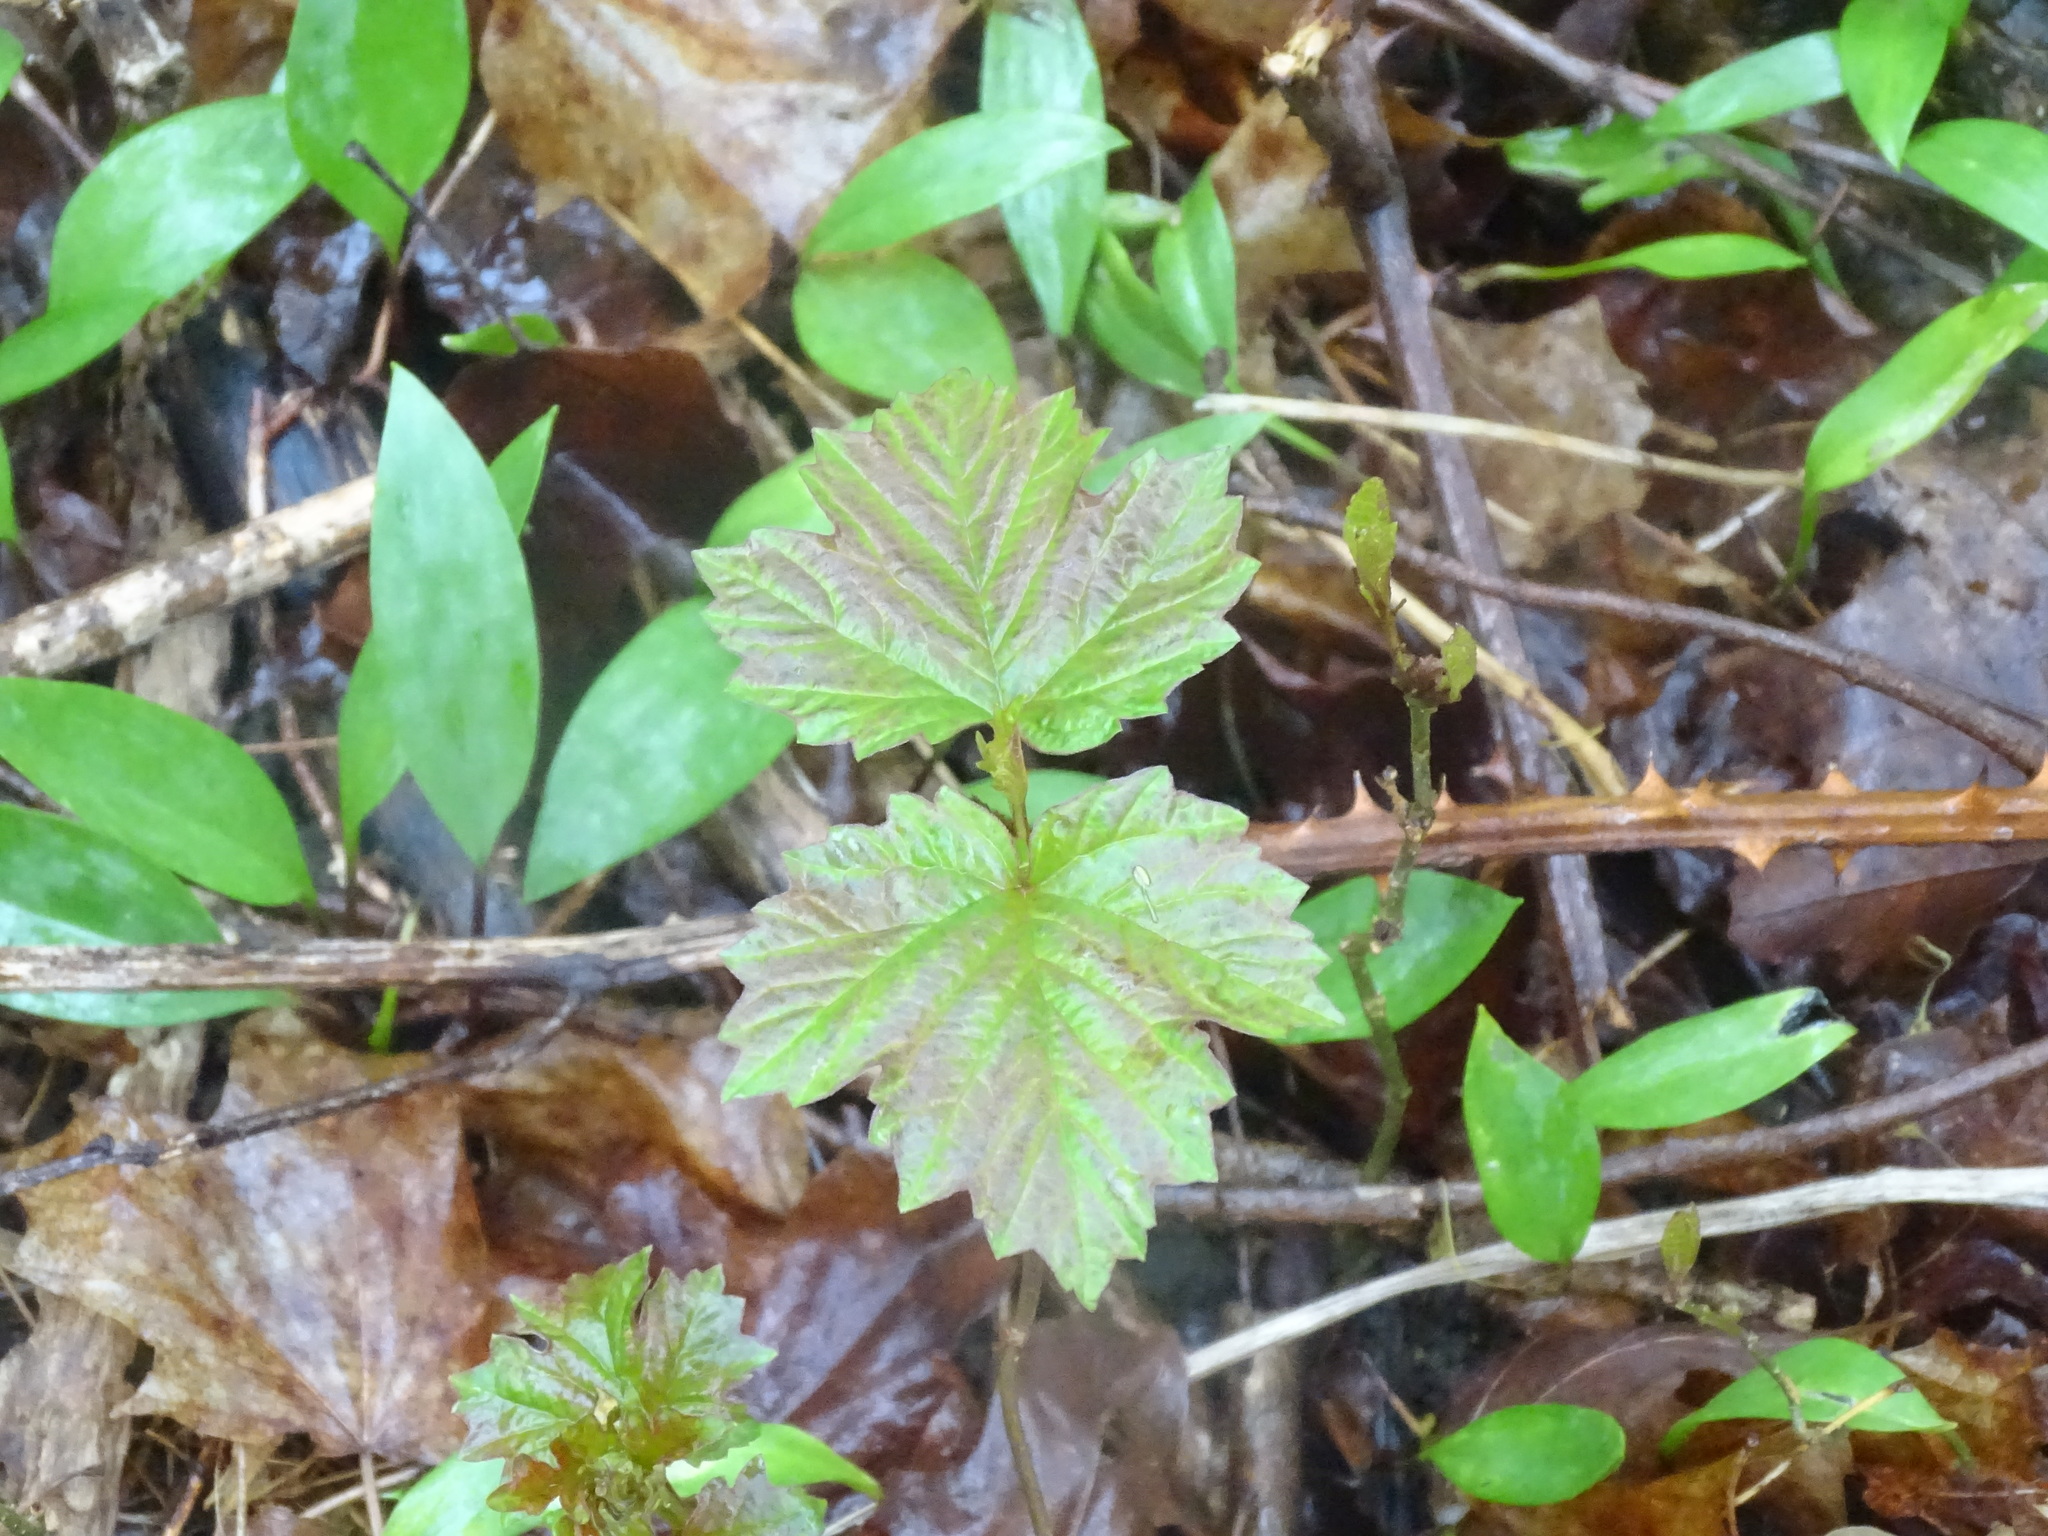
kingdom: Plantae
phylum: Tracheophyta
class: Magnoliopsida
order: Dipsacales
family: Viburnaceae
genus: Viburnum
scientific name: Viburnum opulus
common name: Guelder-rose
